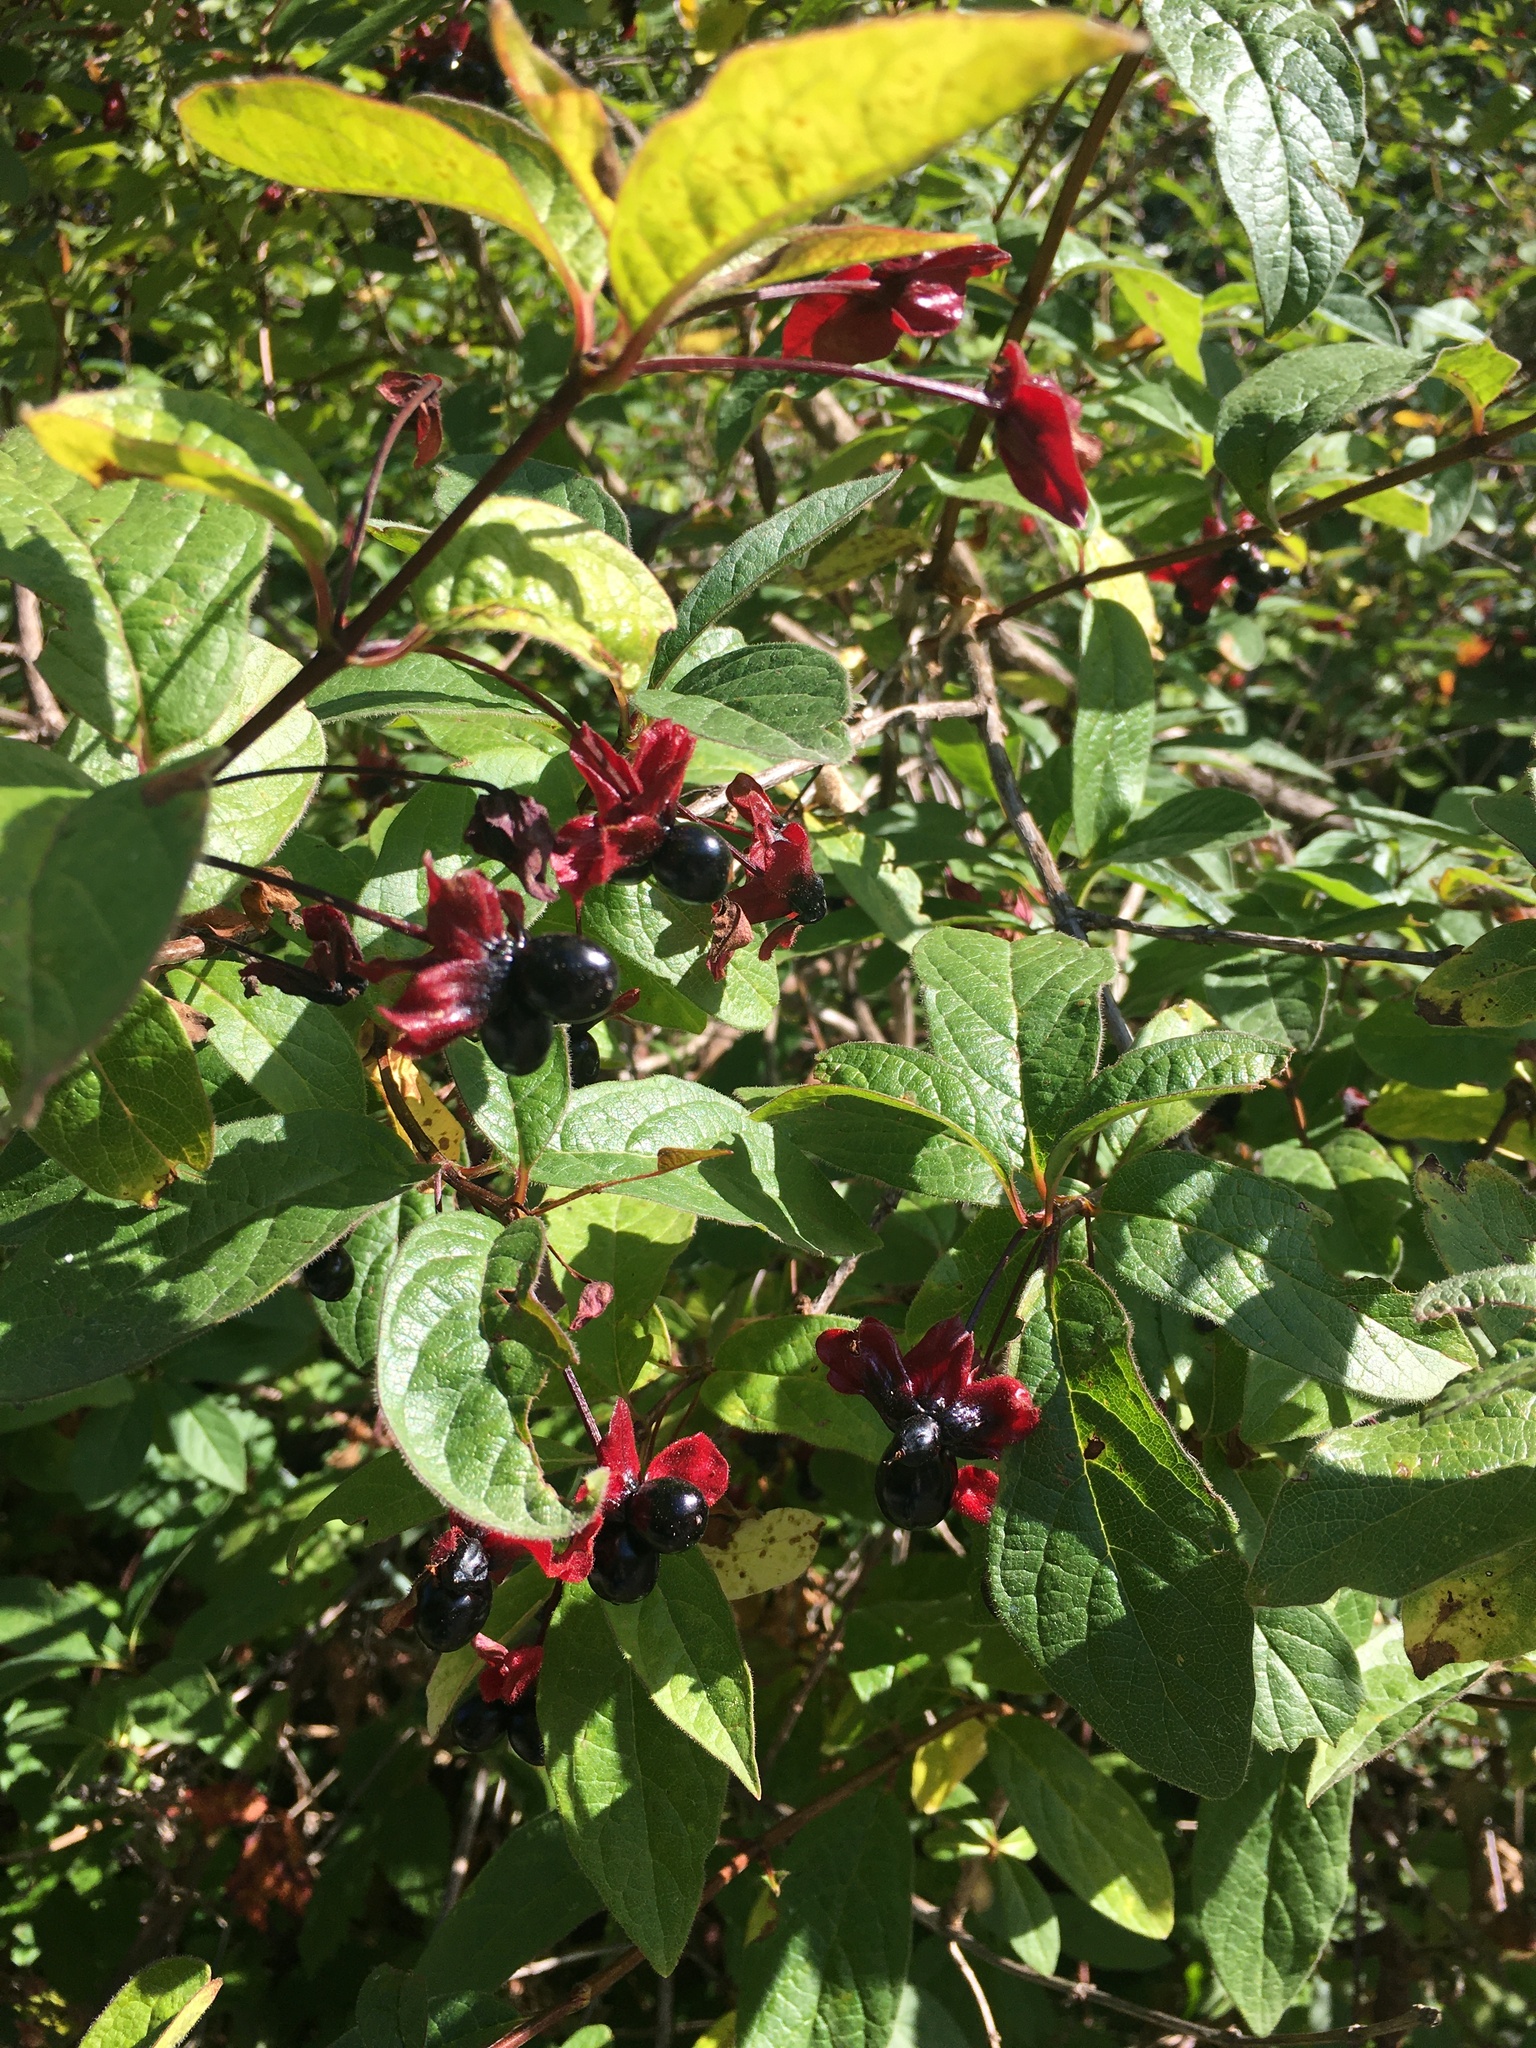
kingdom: Plantae
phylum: Tracheophyta
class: Magnoliopsida
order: Dipsacales
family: Caprifoliaceae
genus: Lonicera
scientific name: Lonicera involucrata
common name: Californian honeysuckle
